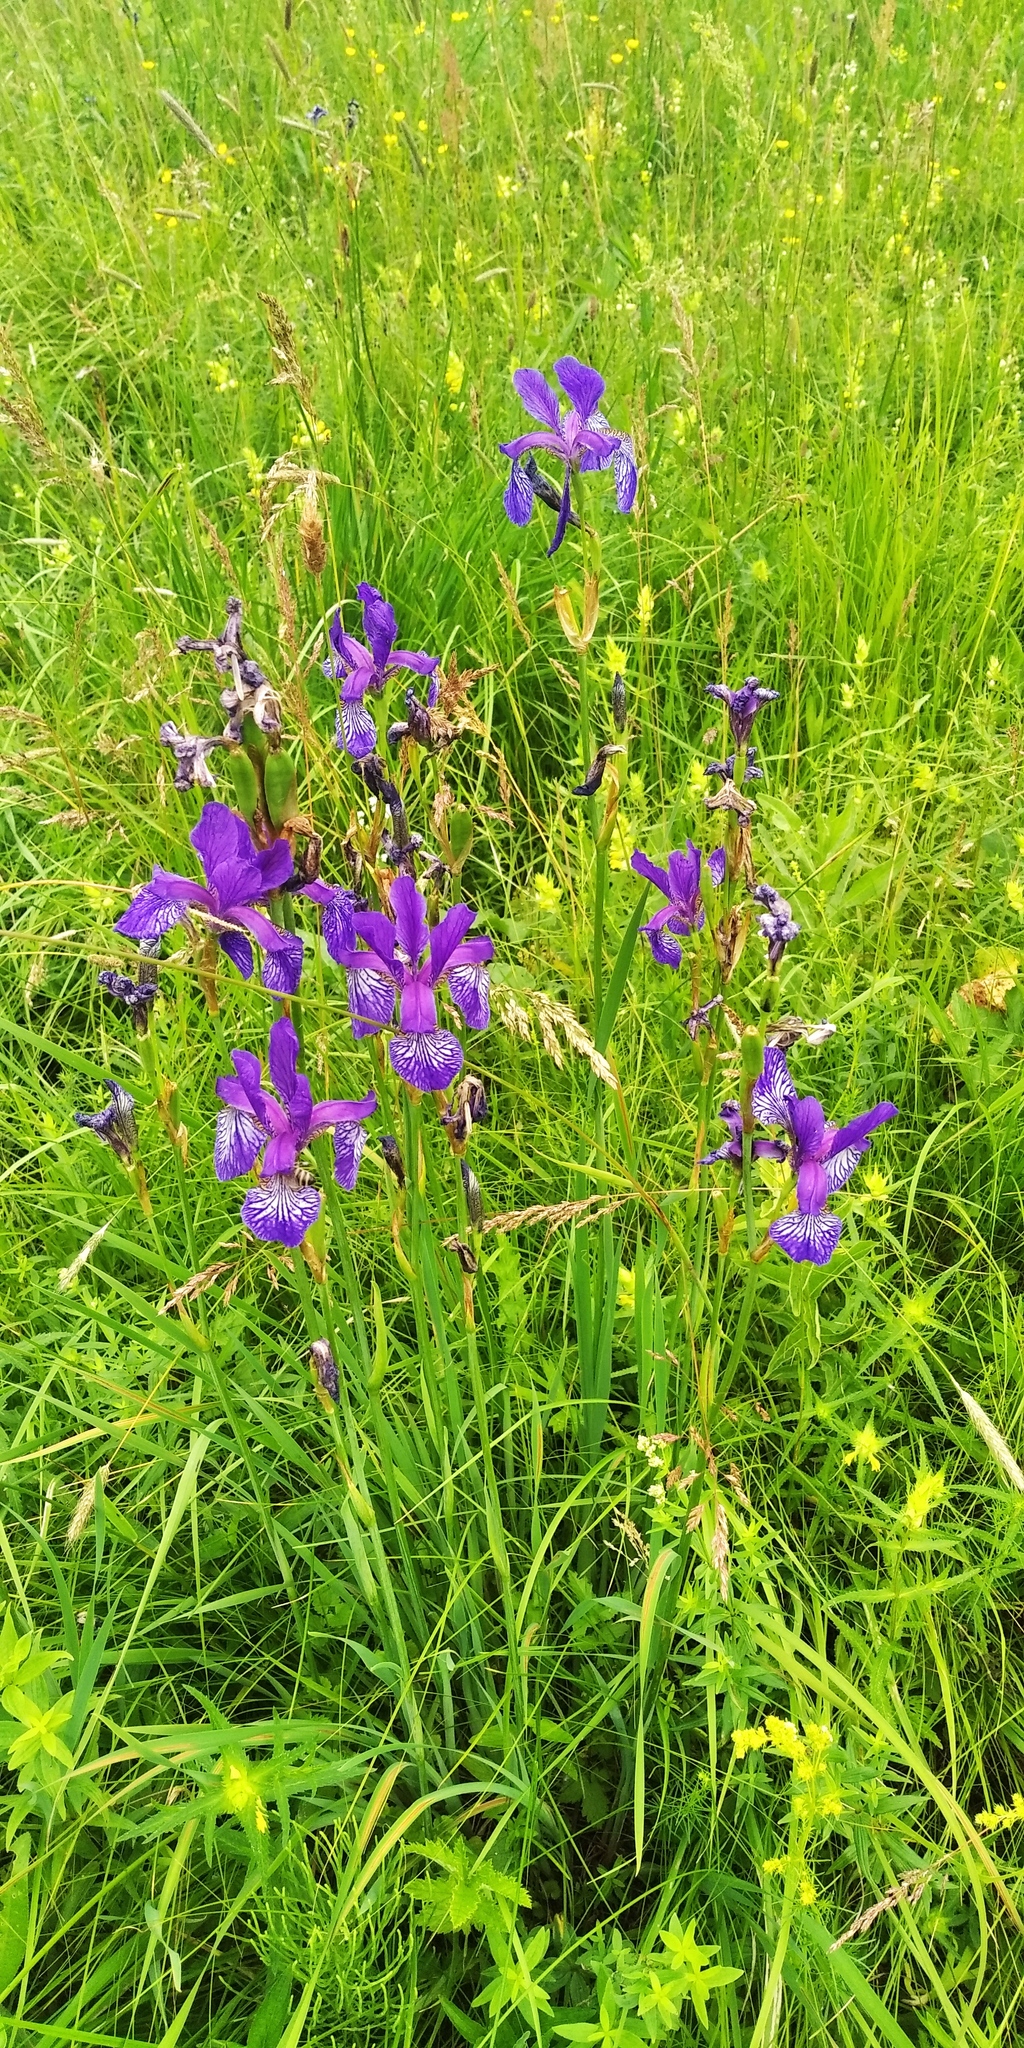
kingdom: Plantae
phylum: Tracheophyta
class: Liliopsida
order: Asparagales
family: Iridaceae
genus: Iris
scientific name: Iris sibirica
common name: Siberian iris
